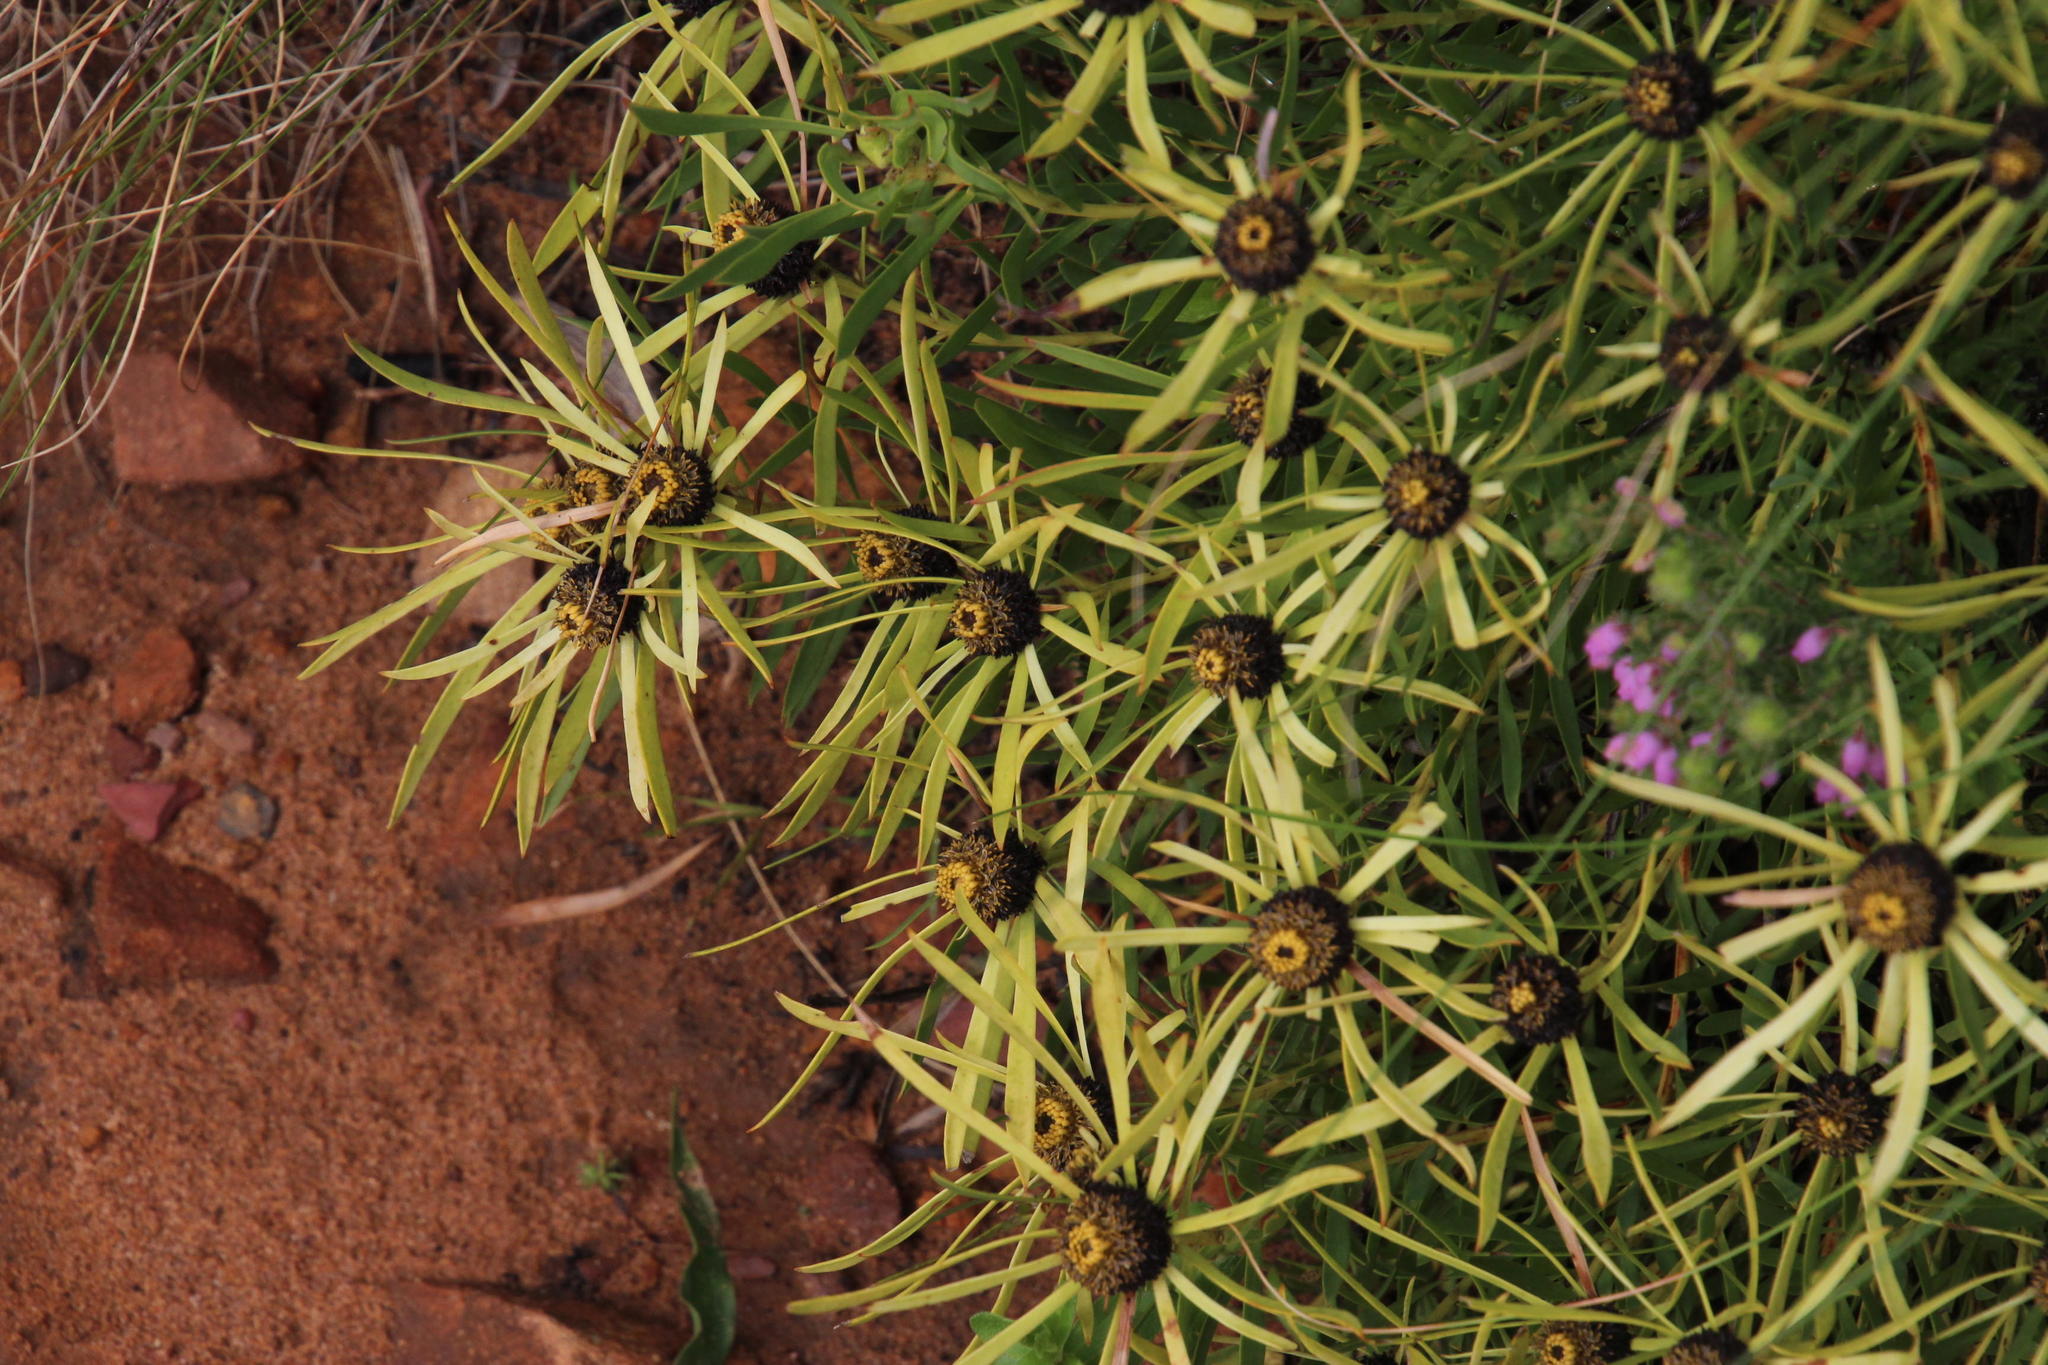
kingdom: Plantae
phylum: Tracheophyta
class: Magnoliopsida
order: Proteales
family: Proteaceae
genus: Leucadendron
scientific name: Leucadendron salignum
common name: Common sunshine conebush
